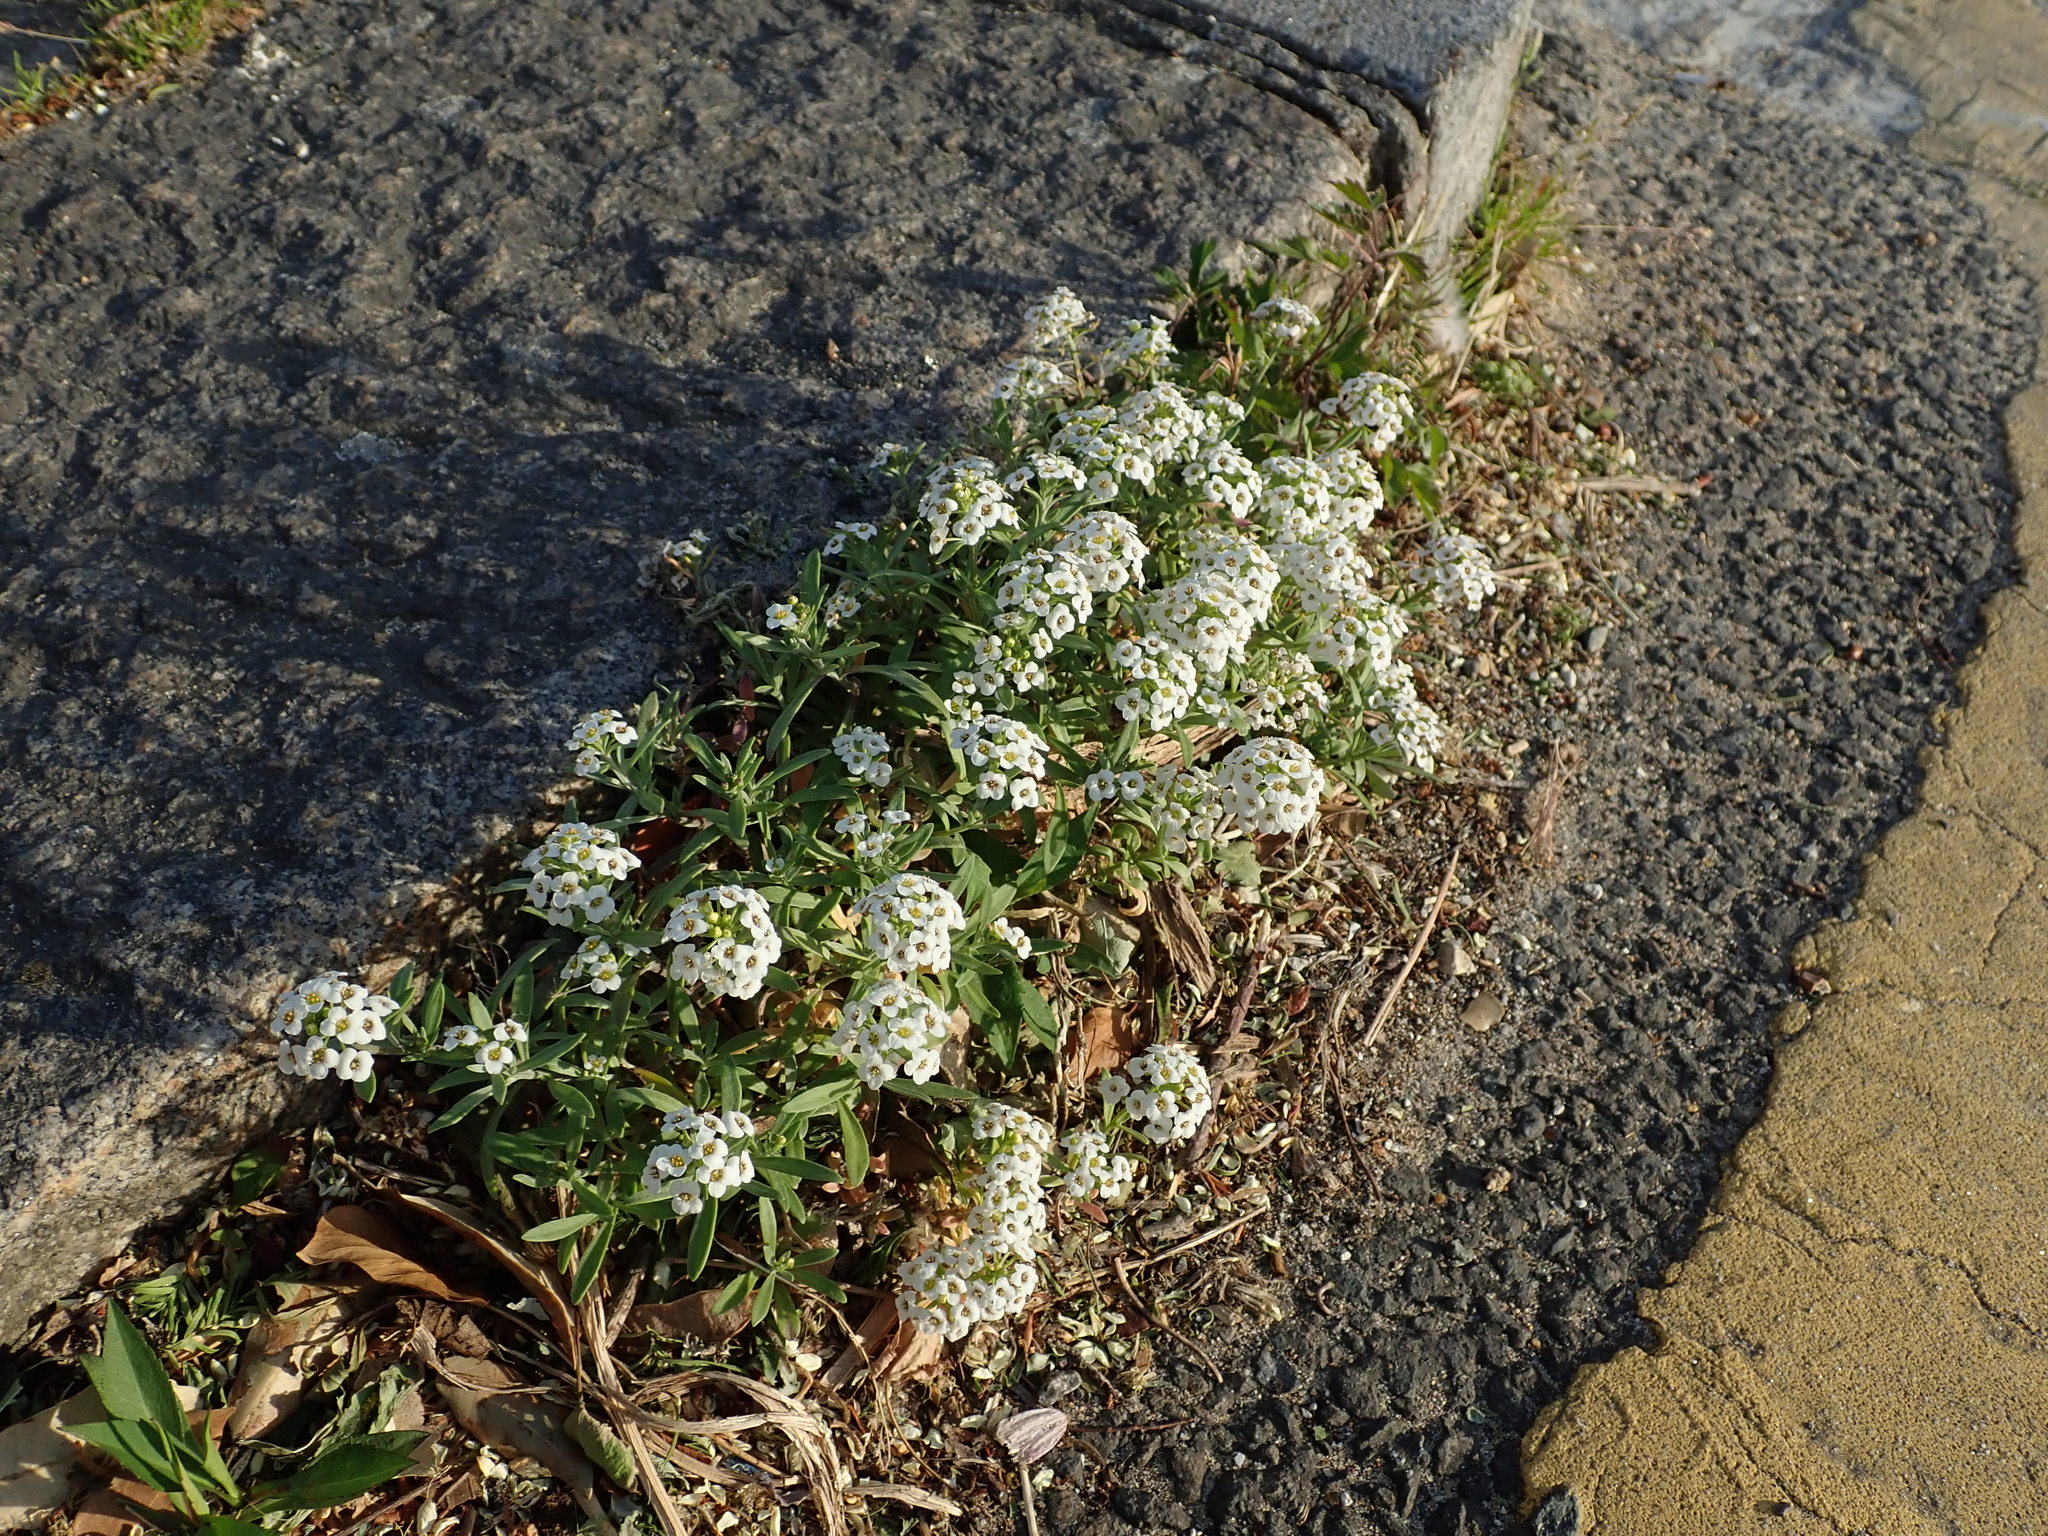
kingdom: Plantae
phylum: Tracheophyta
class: Magnoliopsida
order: Brassicales
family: Brassicaceae
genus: Lobularia
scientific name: Lobularia maritima
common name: Sweet alison
